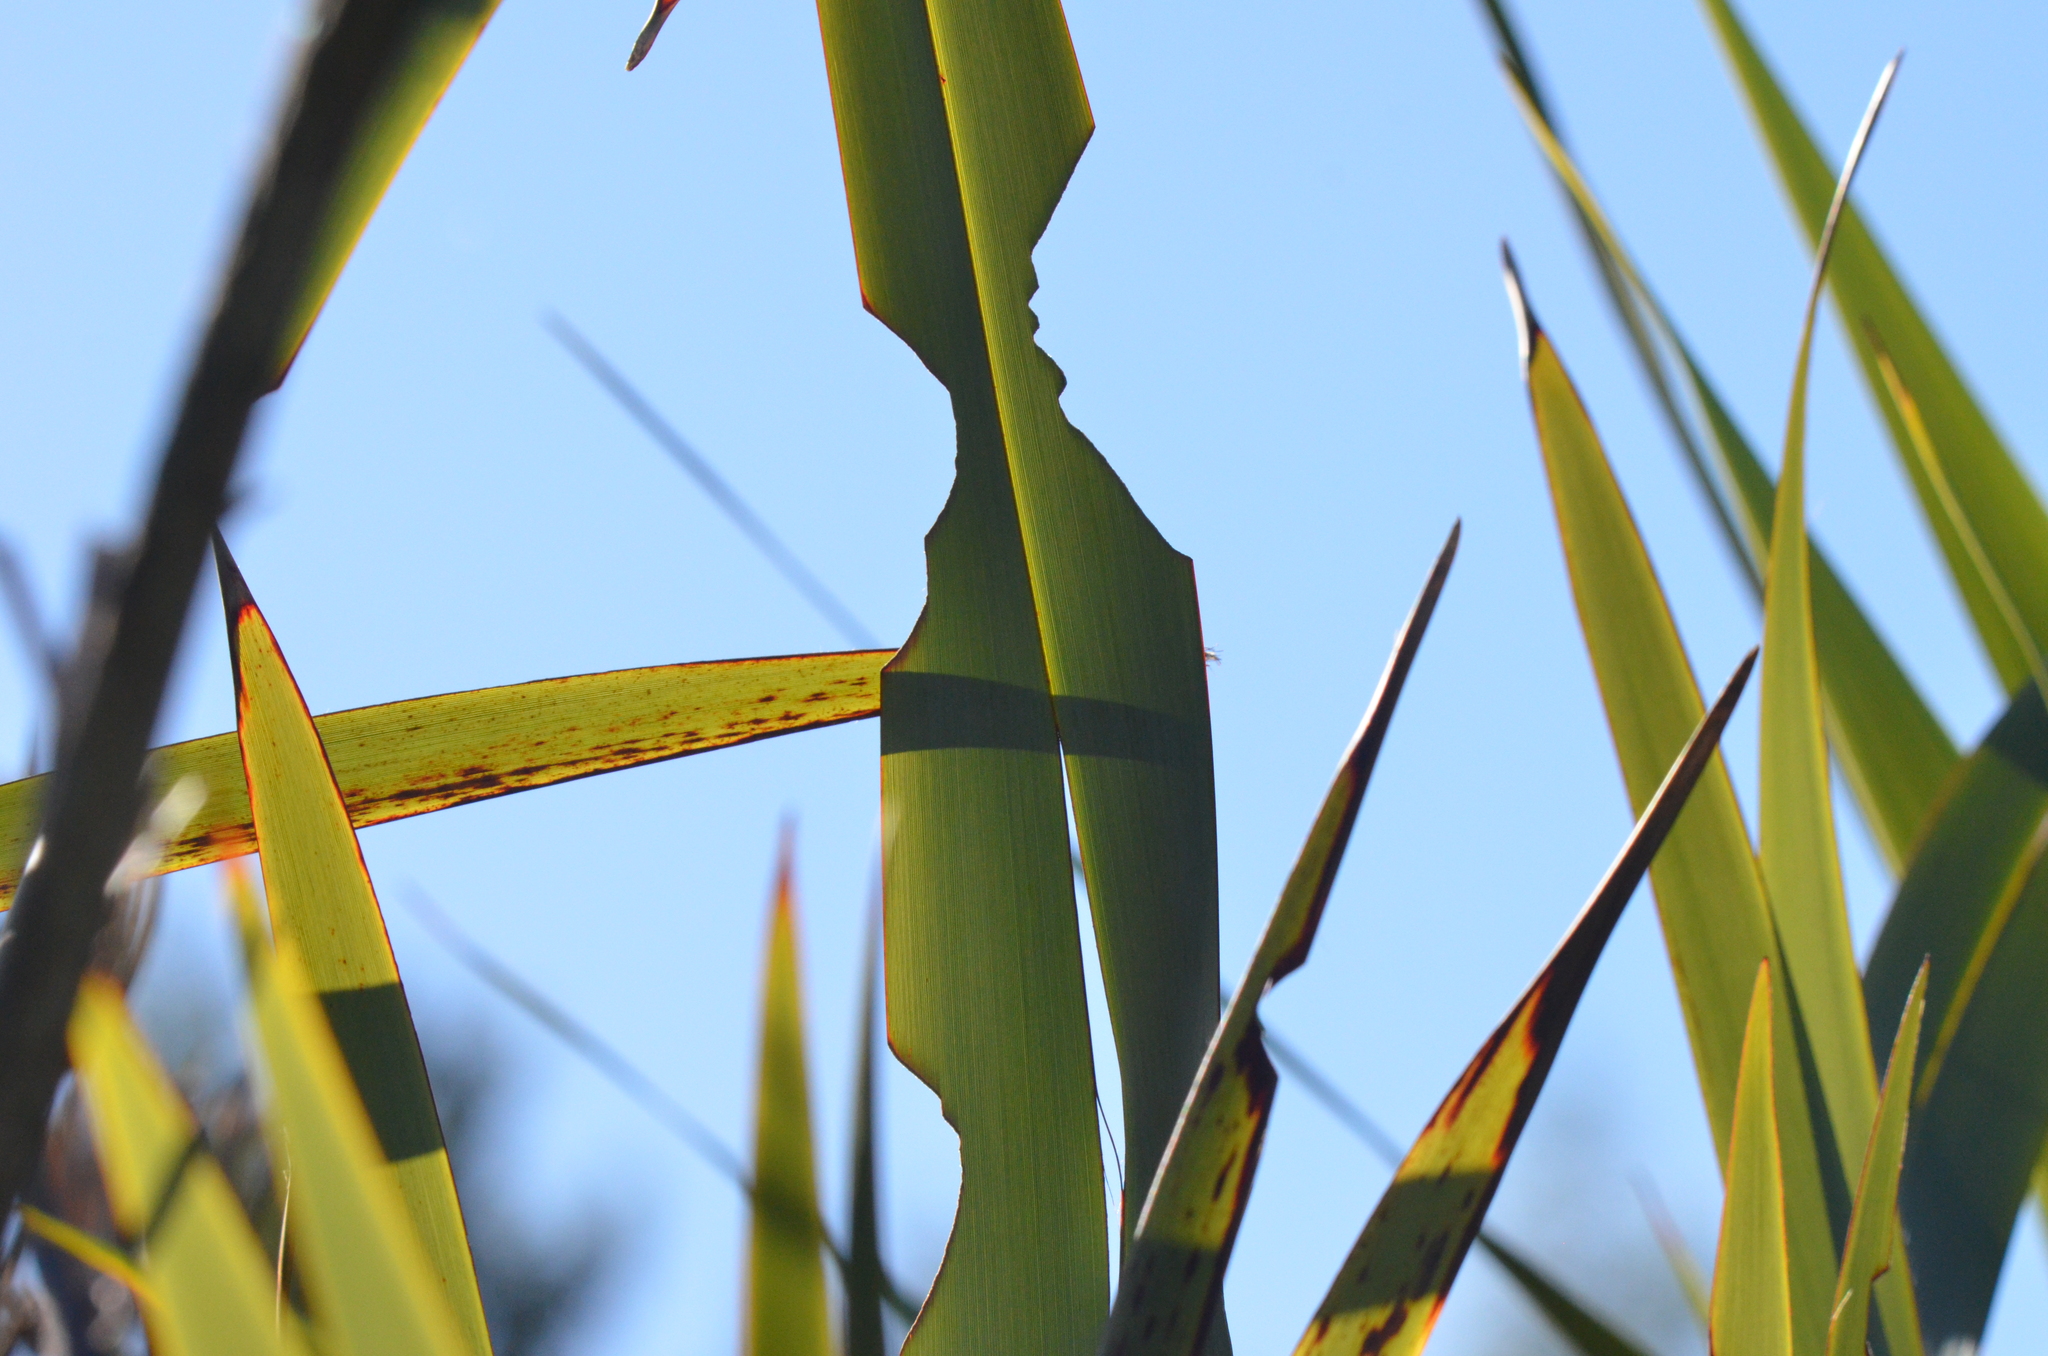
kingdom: Animalia
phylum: Arthropoda
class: Insecta
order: Lepidoptera
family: Noctuidae
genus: Ichneutica
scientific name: Ichneutica
